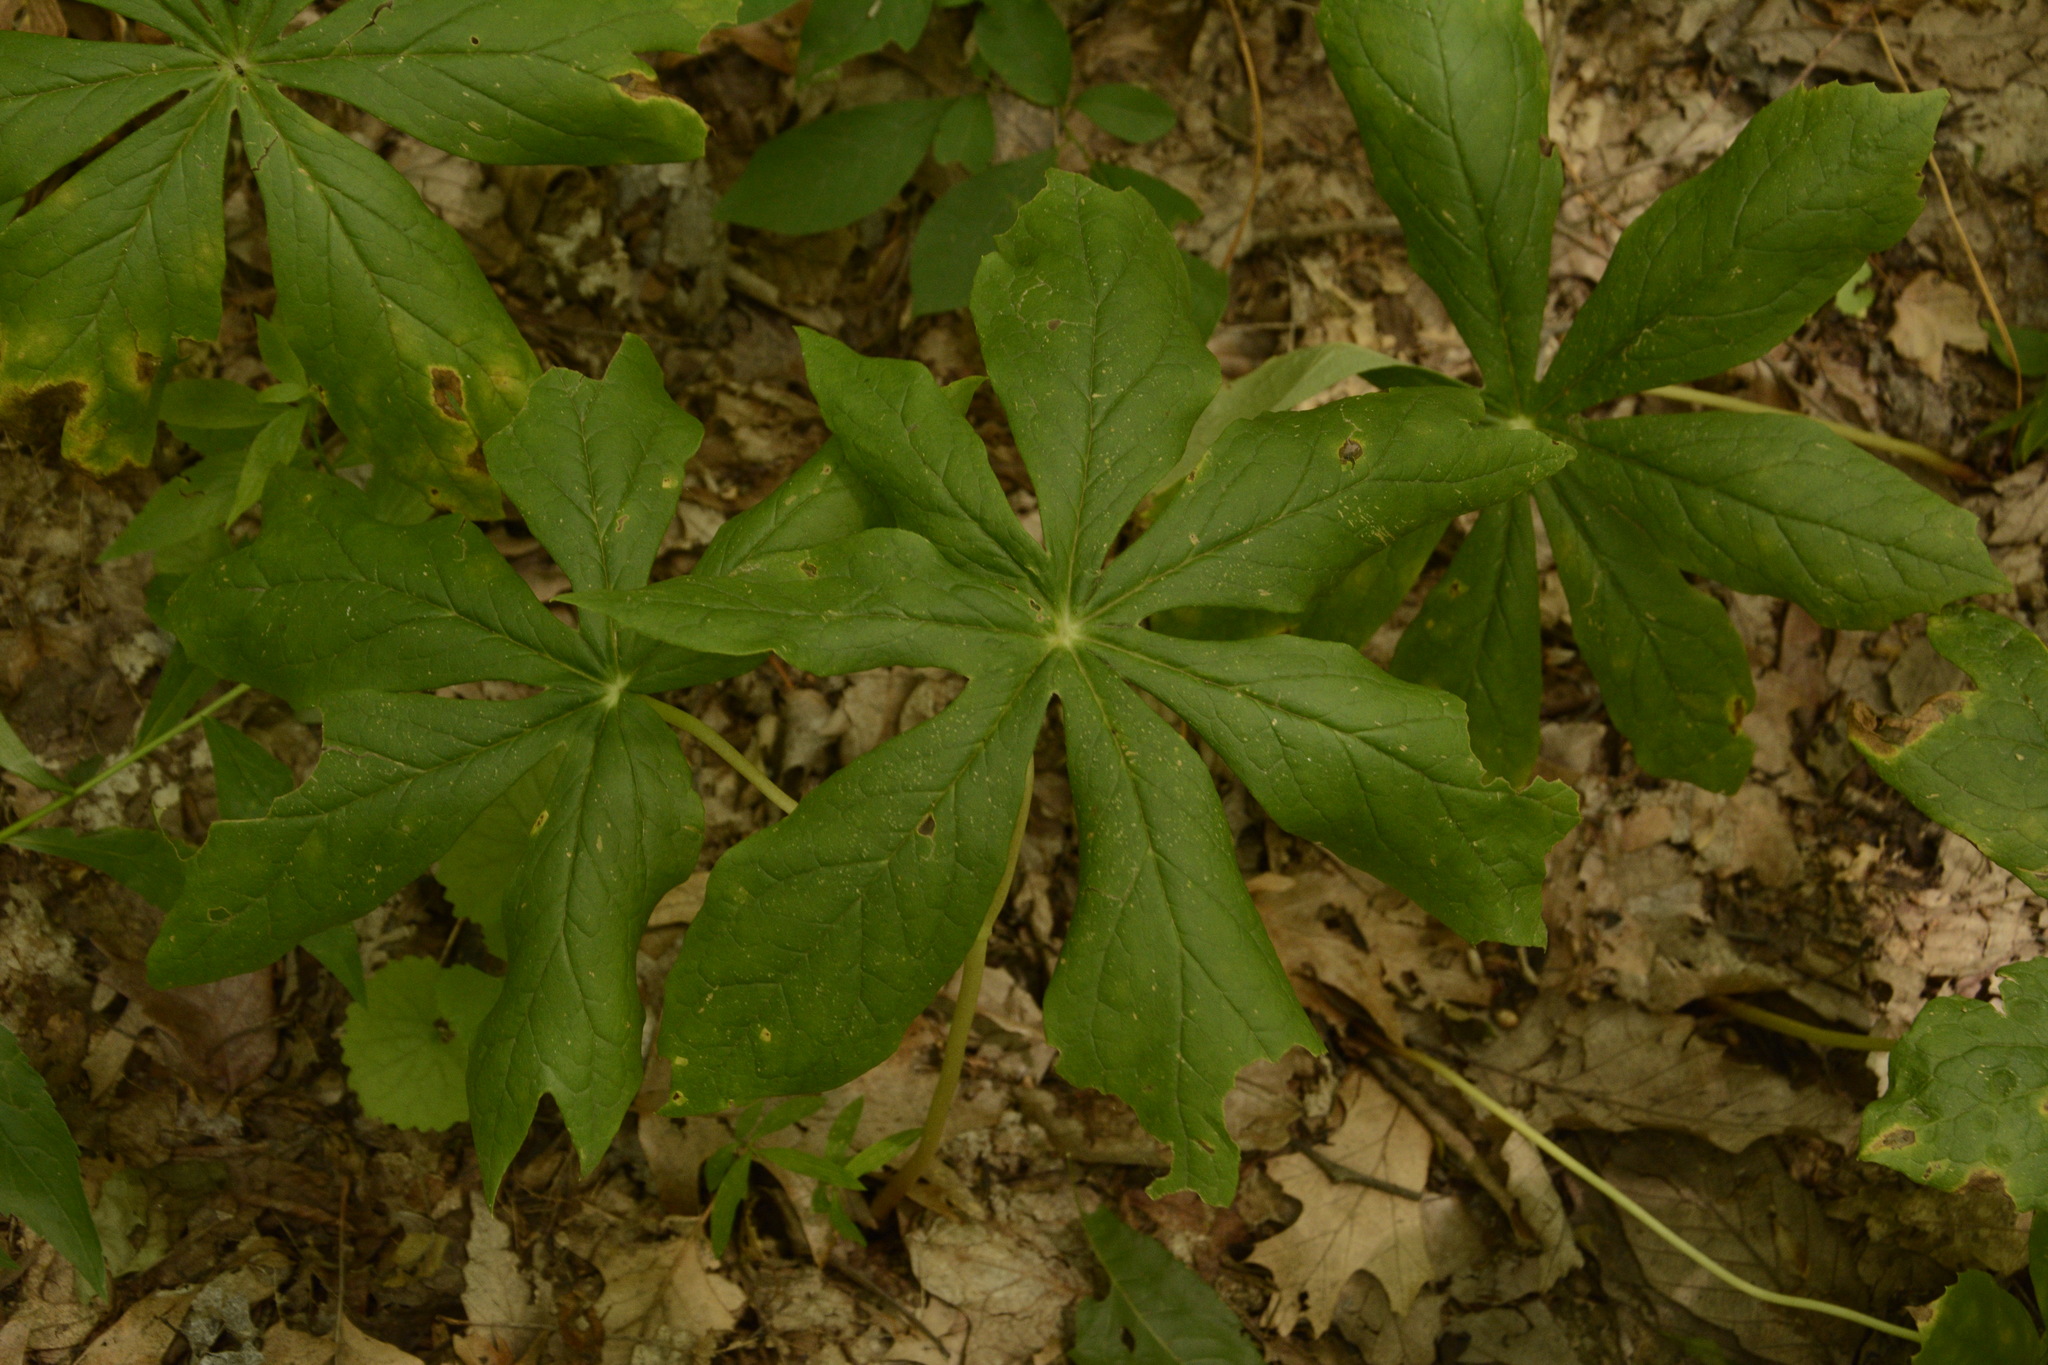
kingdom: Plantae
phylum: Tracheophyta
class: Magnoliopsida
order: Ranunculales
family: Berberidaceae
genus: Podophyllum
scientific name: Podophyllum peltatum
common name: Wild mandrake
